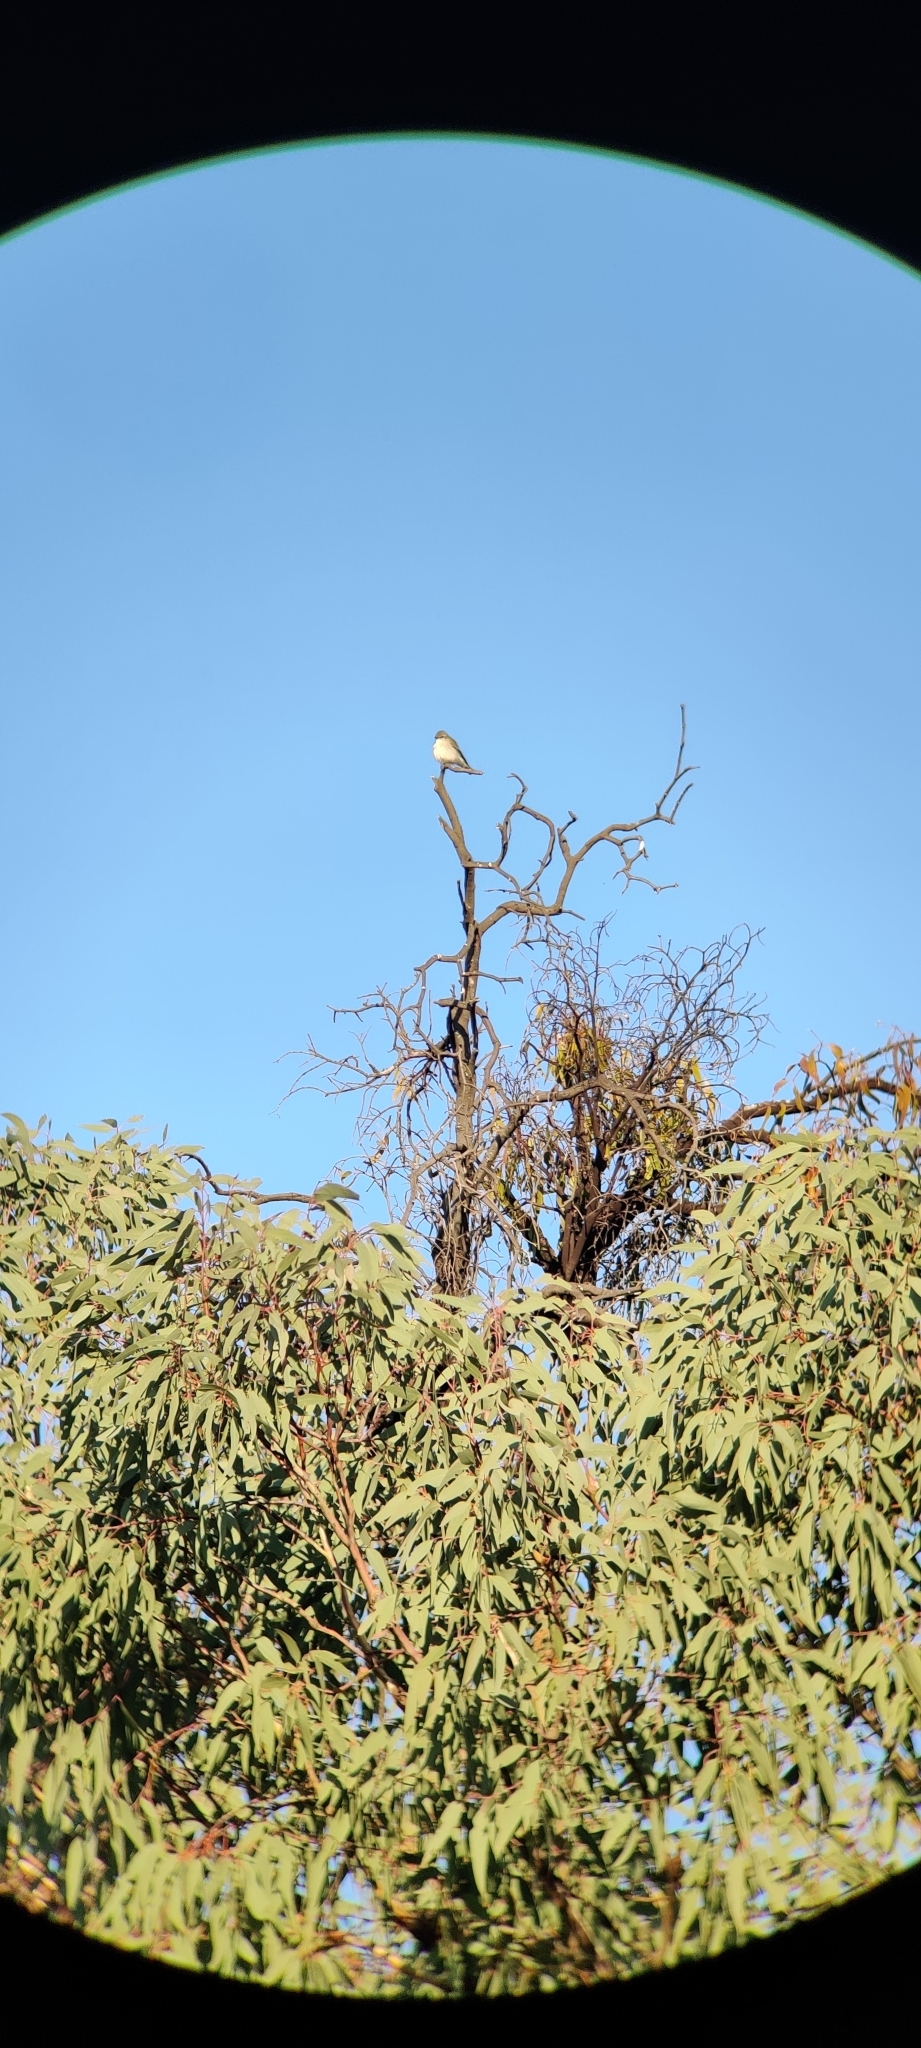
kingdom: Animalia
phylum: Chordata
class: Aves
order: Passeriformes
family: Petroicidae
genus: Microeca
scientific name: Microeca fascinans
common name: Jacky winter
